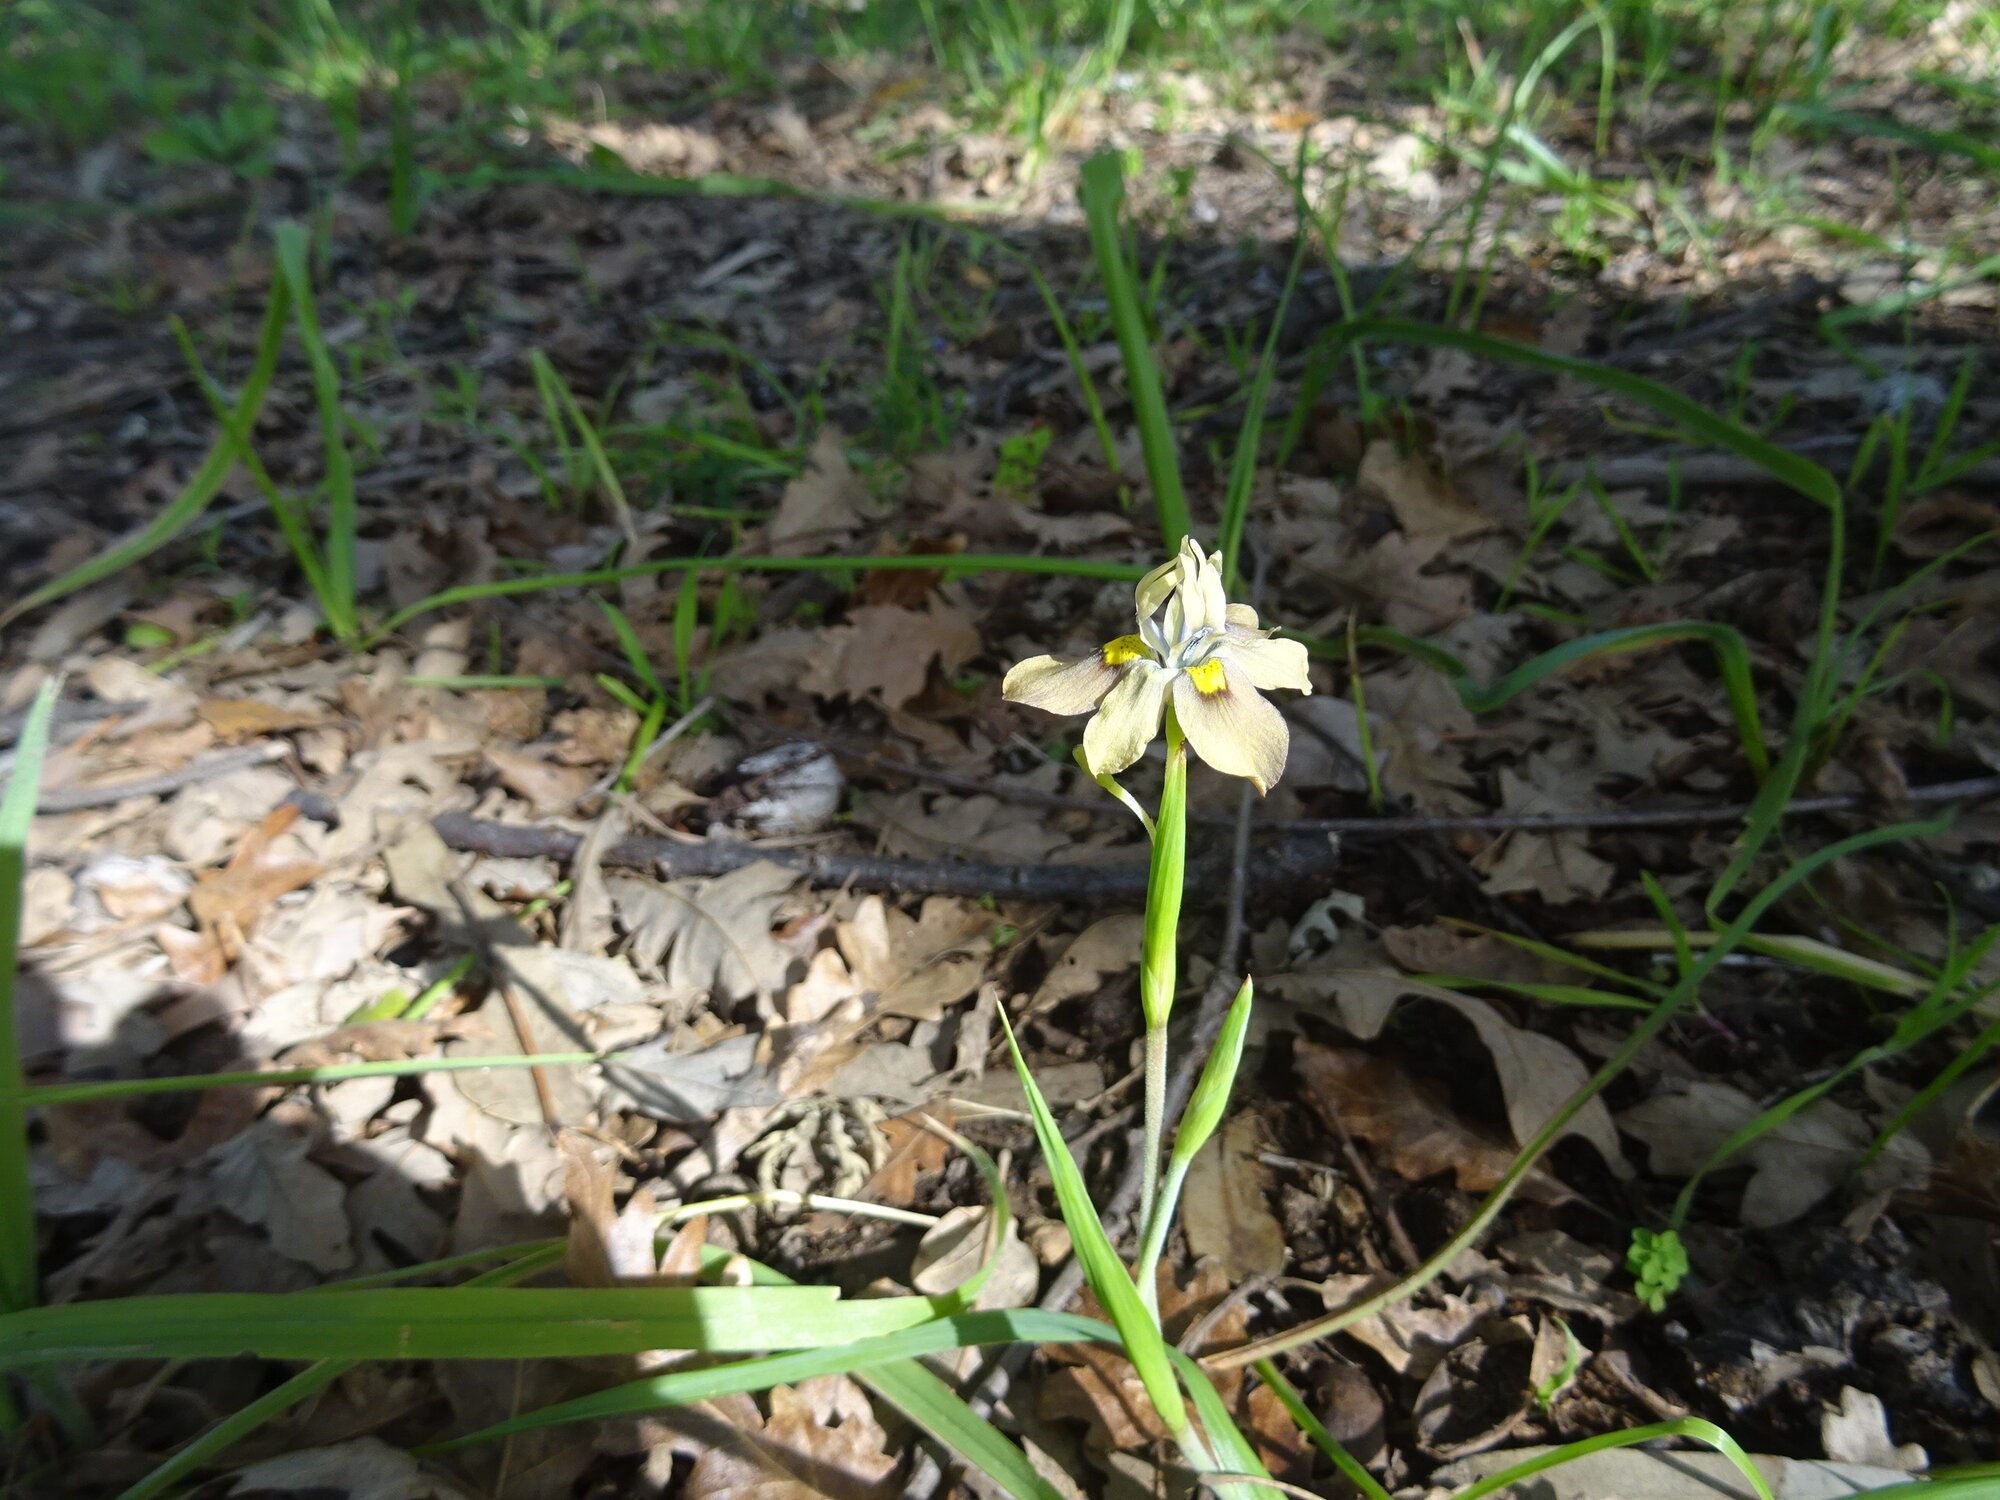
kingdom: Plantae
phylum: Tracheophyta
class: Liliopsida
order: Asparagales
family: Iridaceae
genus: Moraea
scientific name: Moraea vegeta
